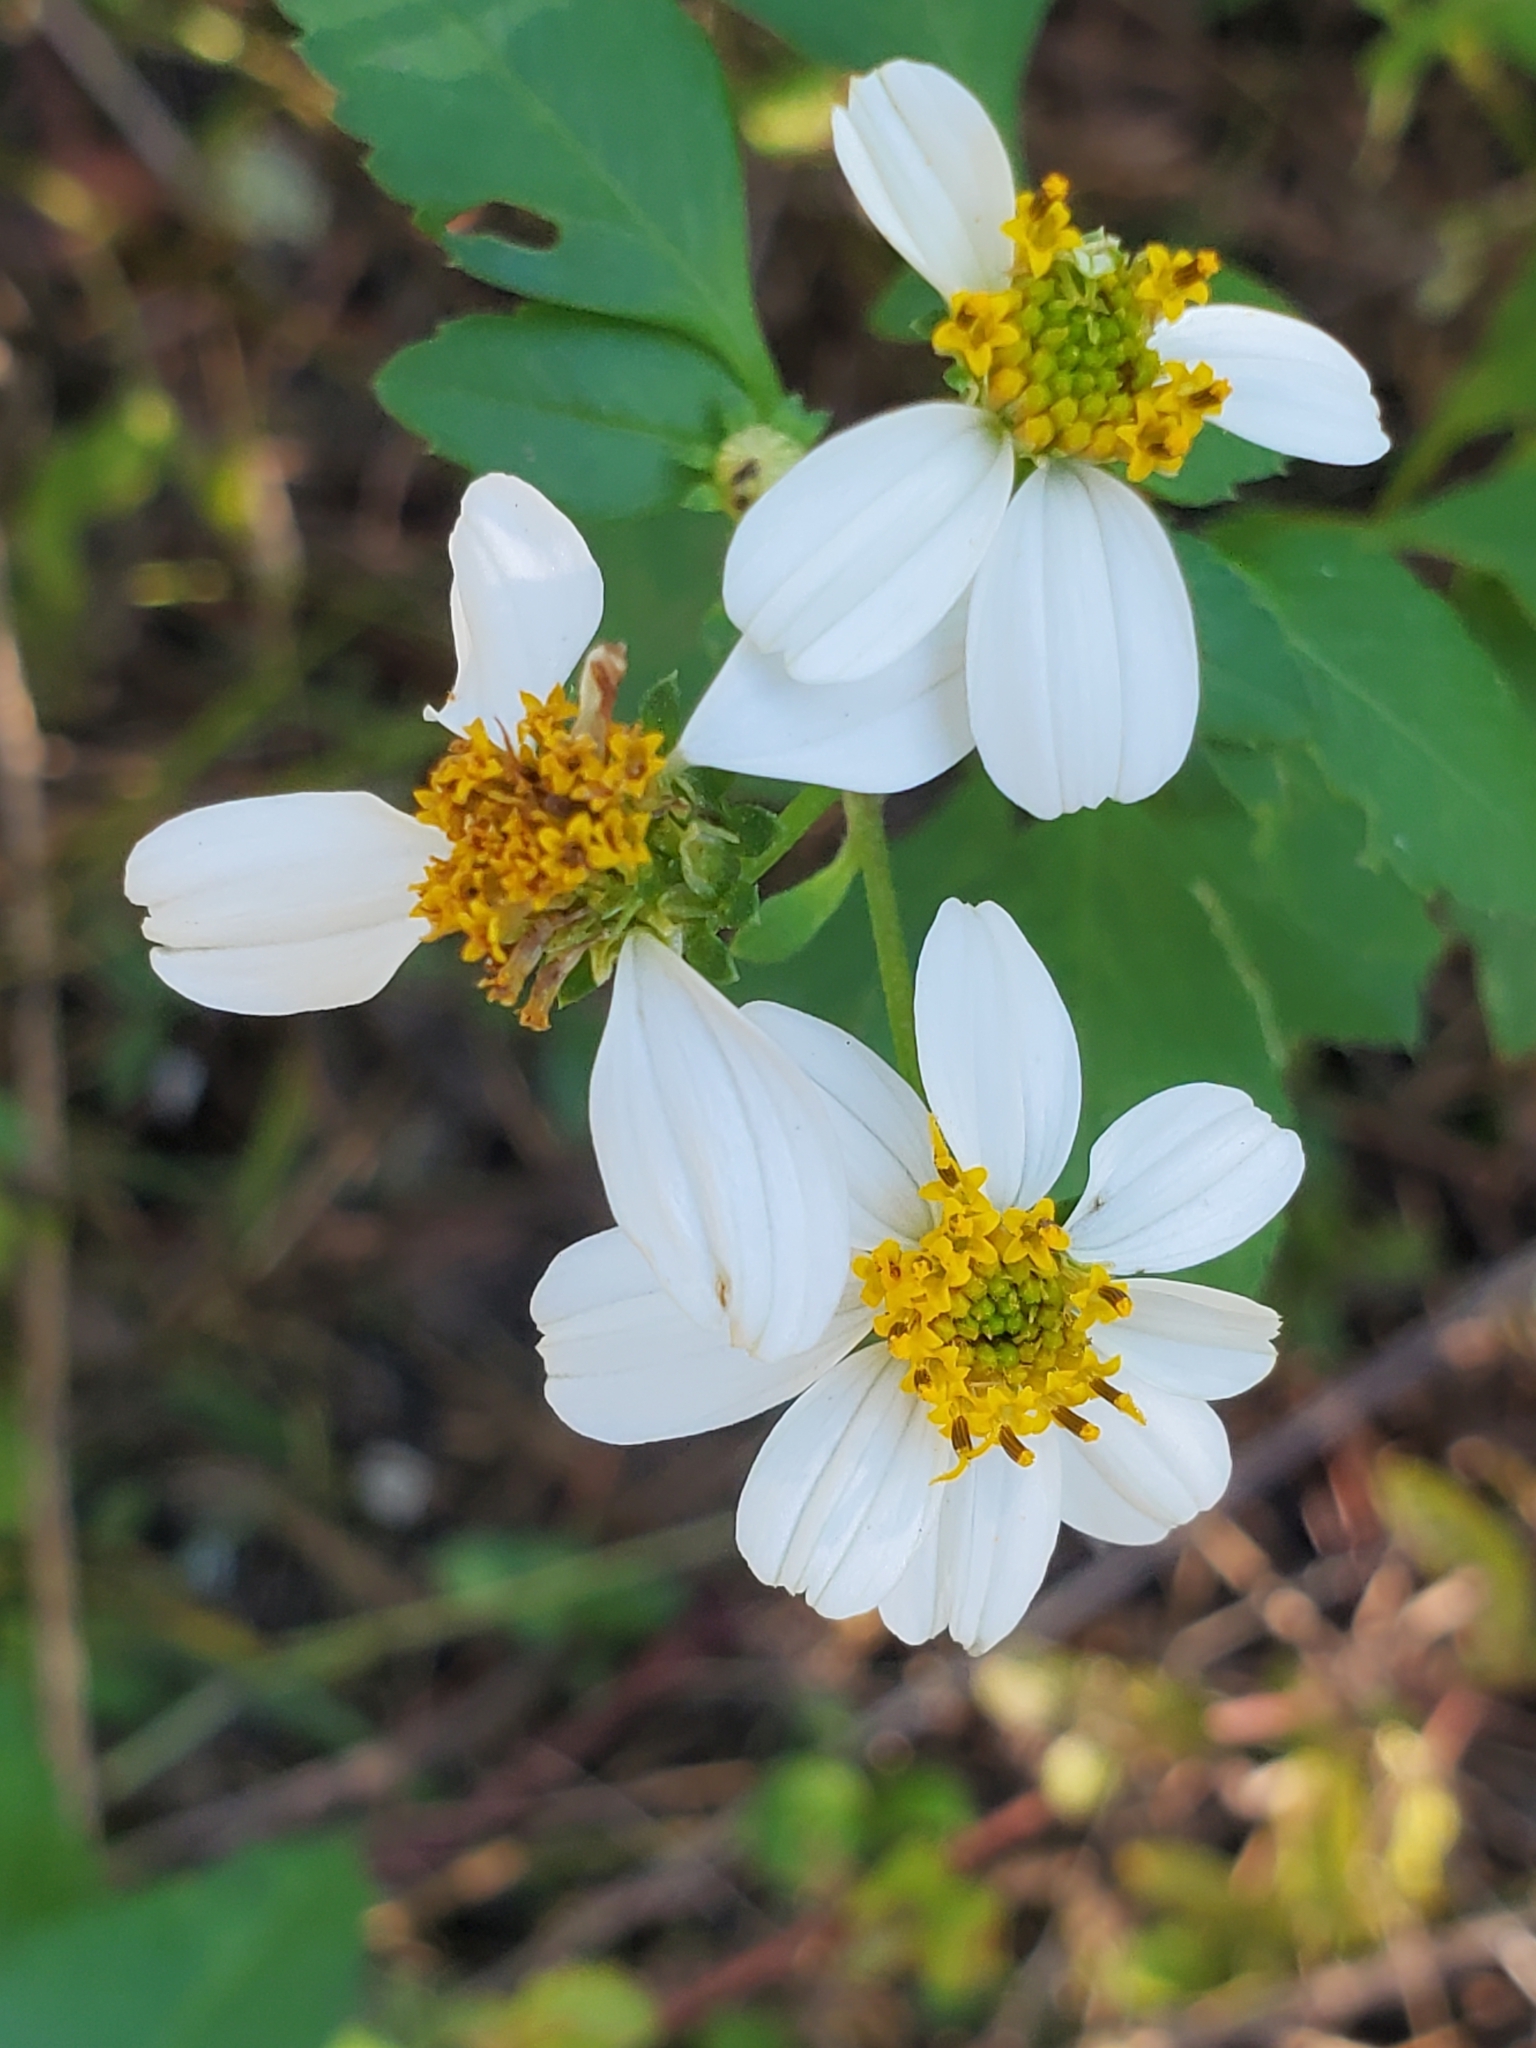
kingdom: Plantae
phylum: Tracheophyta
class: Magnoliopsida
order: Asterales
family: Asteraceae
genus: Bidens
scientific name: Bidens alba
